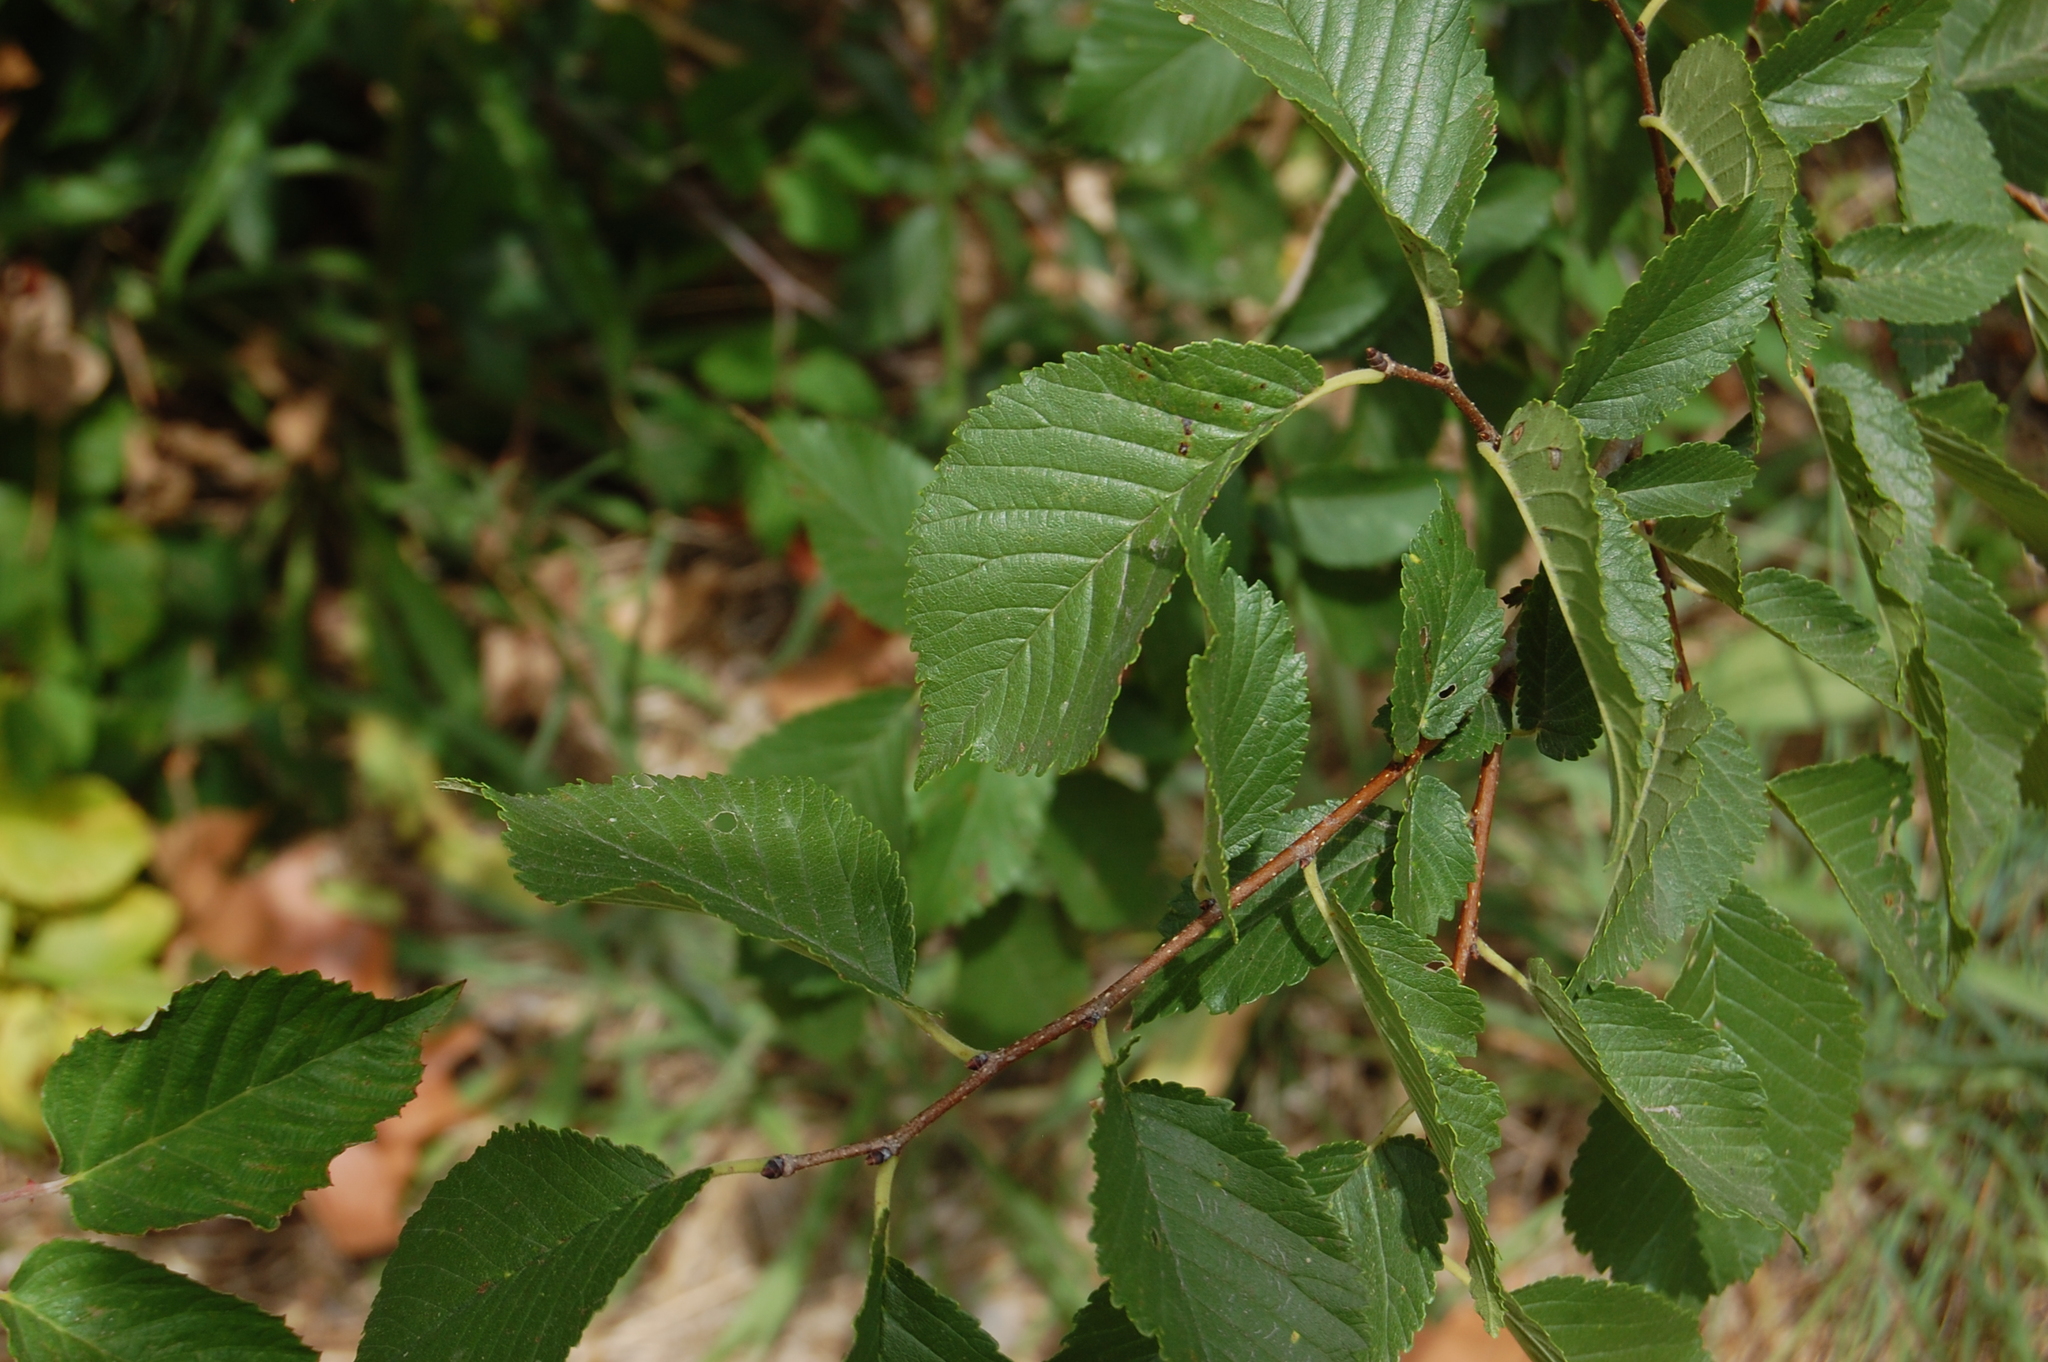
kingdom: Plantae
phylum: Tracheophyta
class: Magnoliopsida
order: Rosales
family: Ulmaceae
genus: Ulmus
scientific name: Ulmus minor
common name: Small-leaved elm
